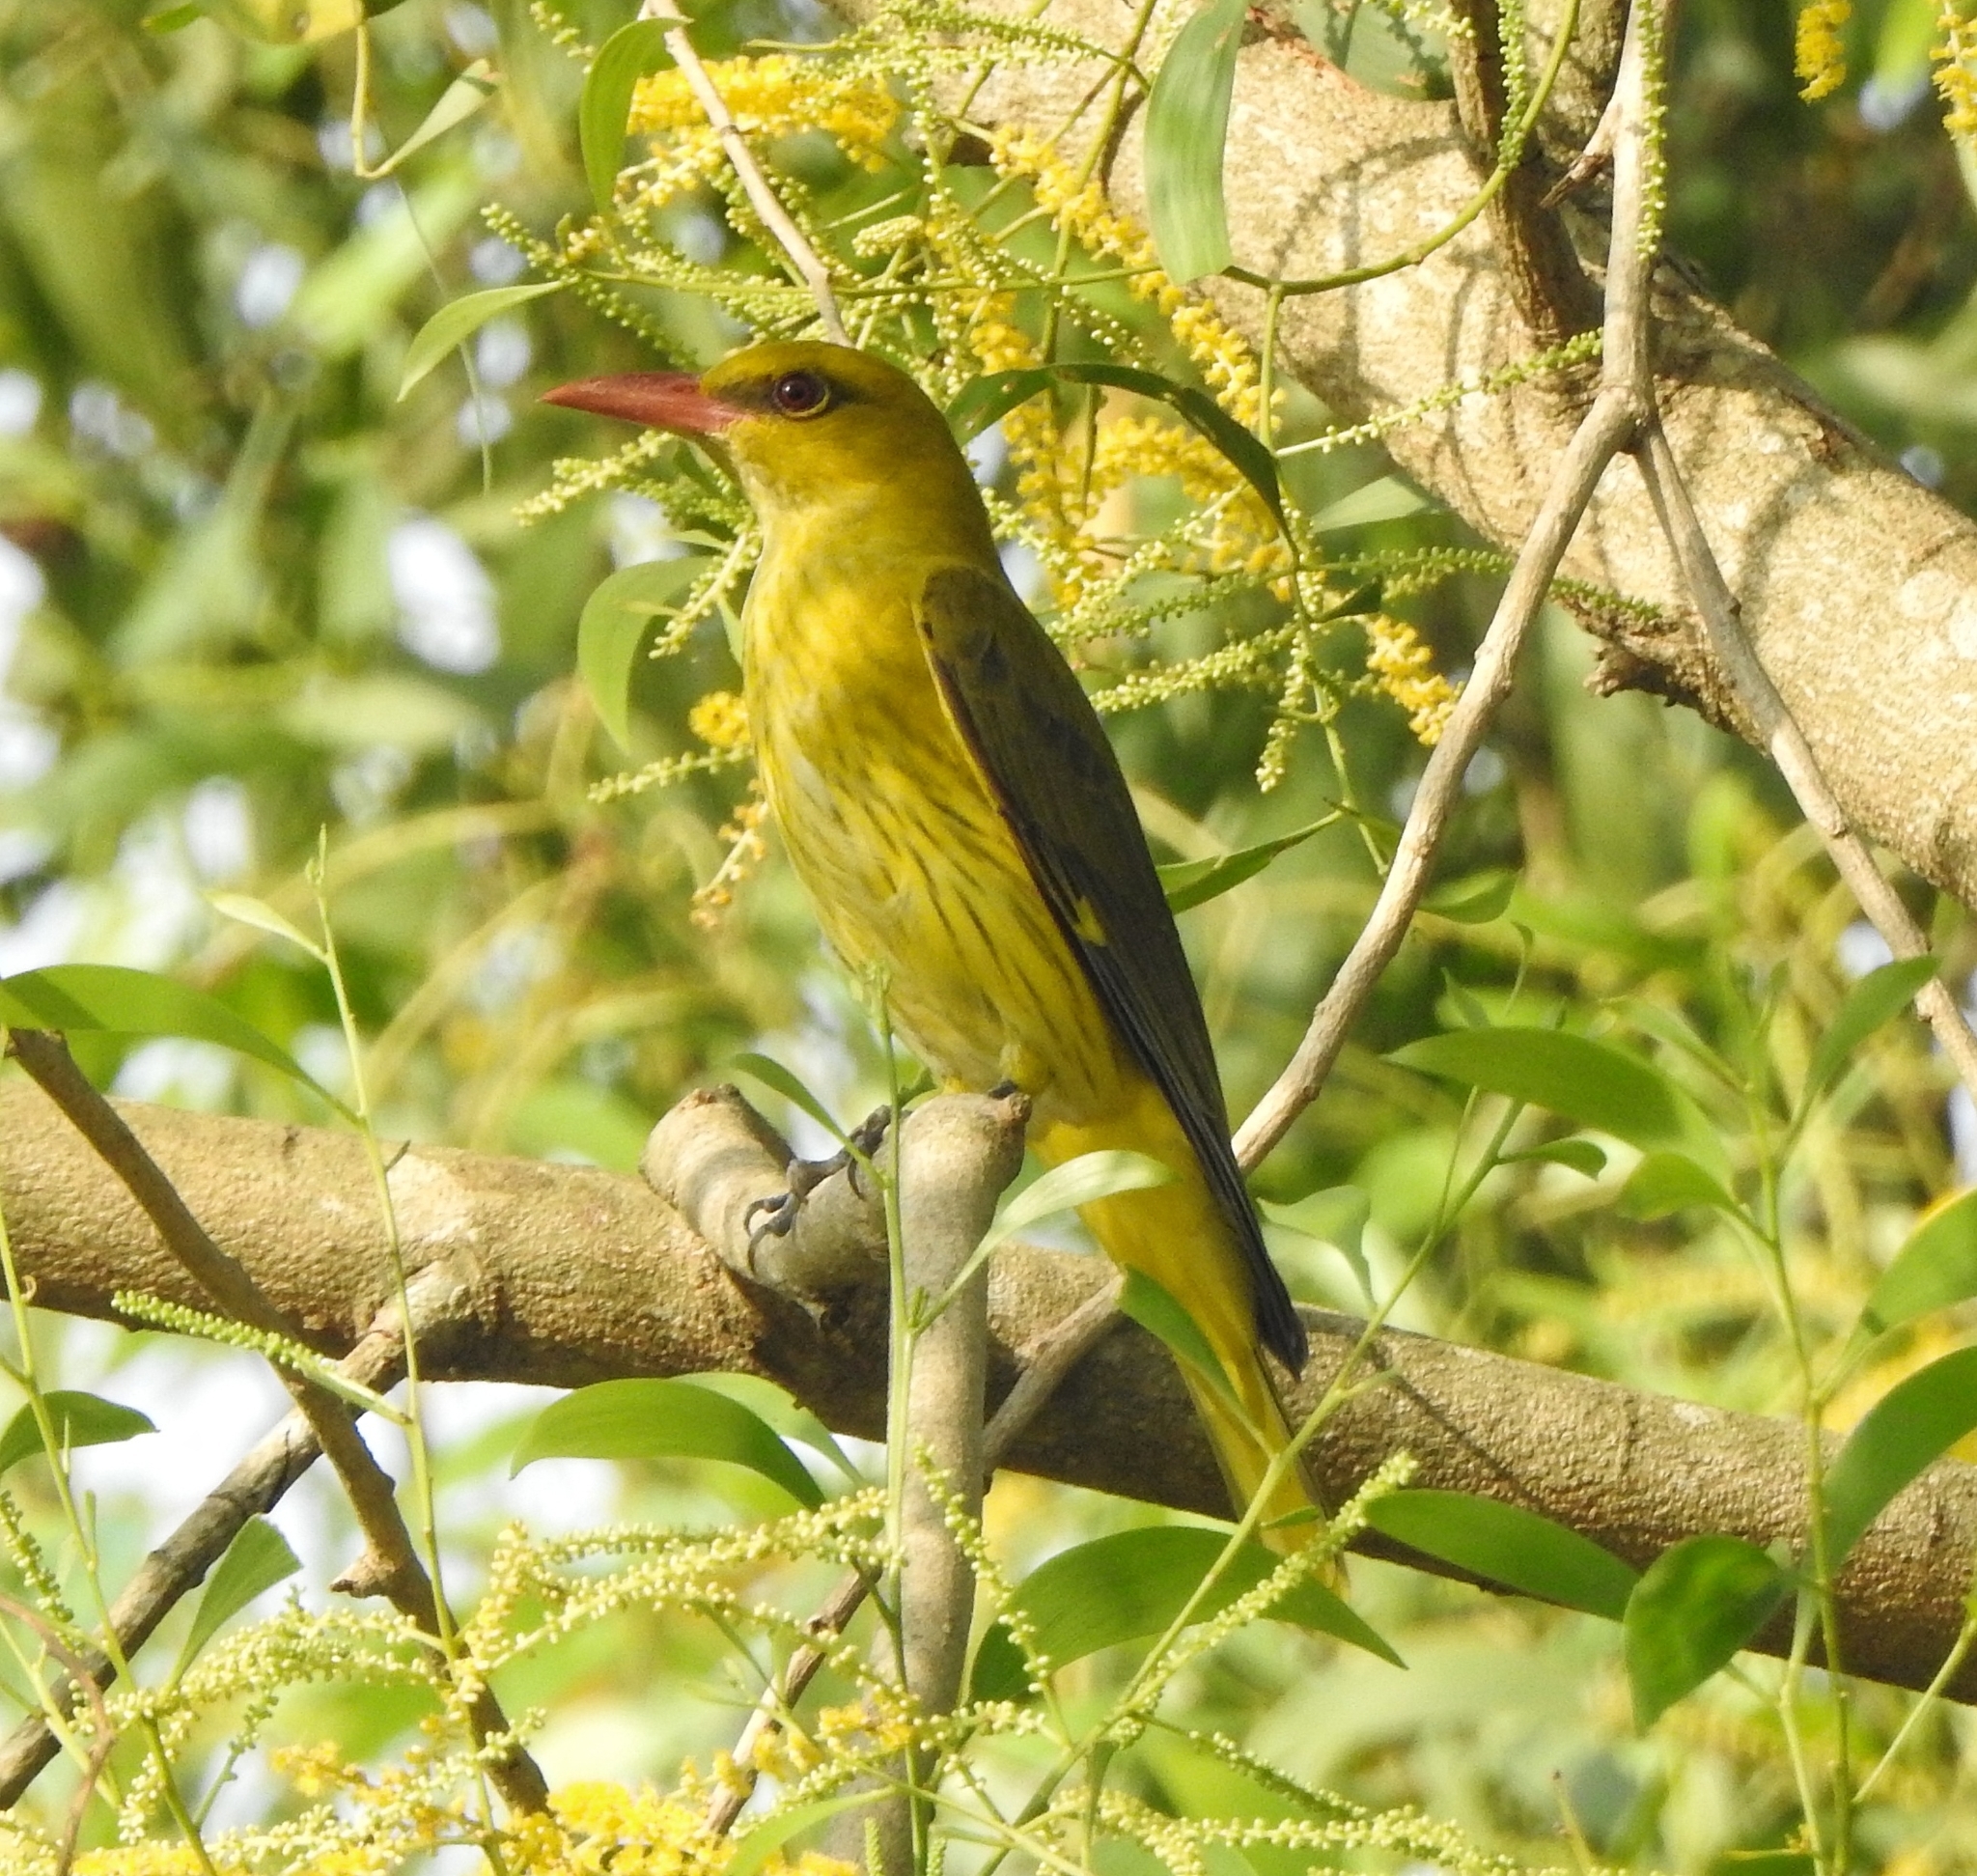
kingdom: Animalia
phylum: Chordata
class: Aves
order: Passeriformes
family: Oriolidae
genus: Oriolus
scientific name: Oriolus kundoo
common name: Indian golden oriole
